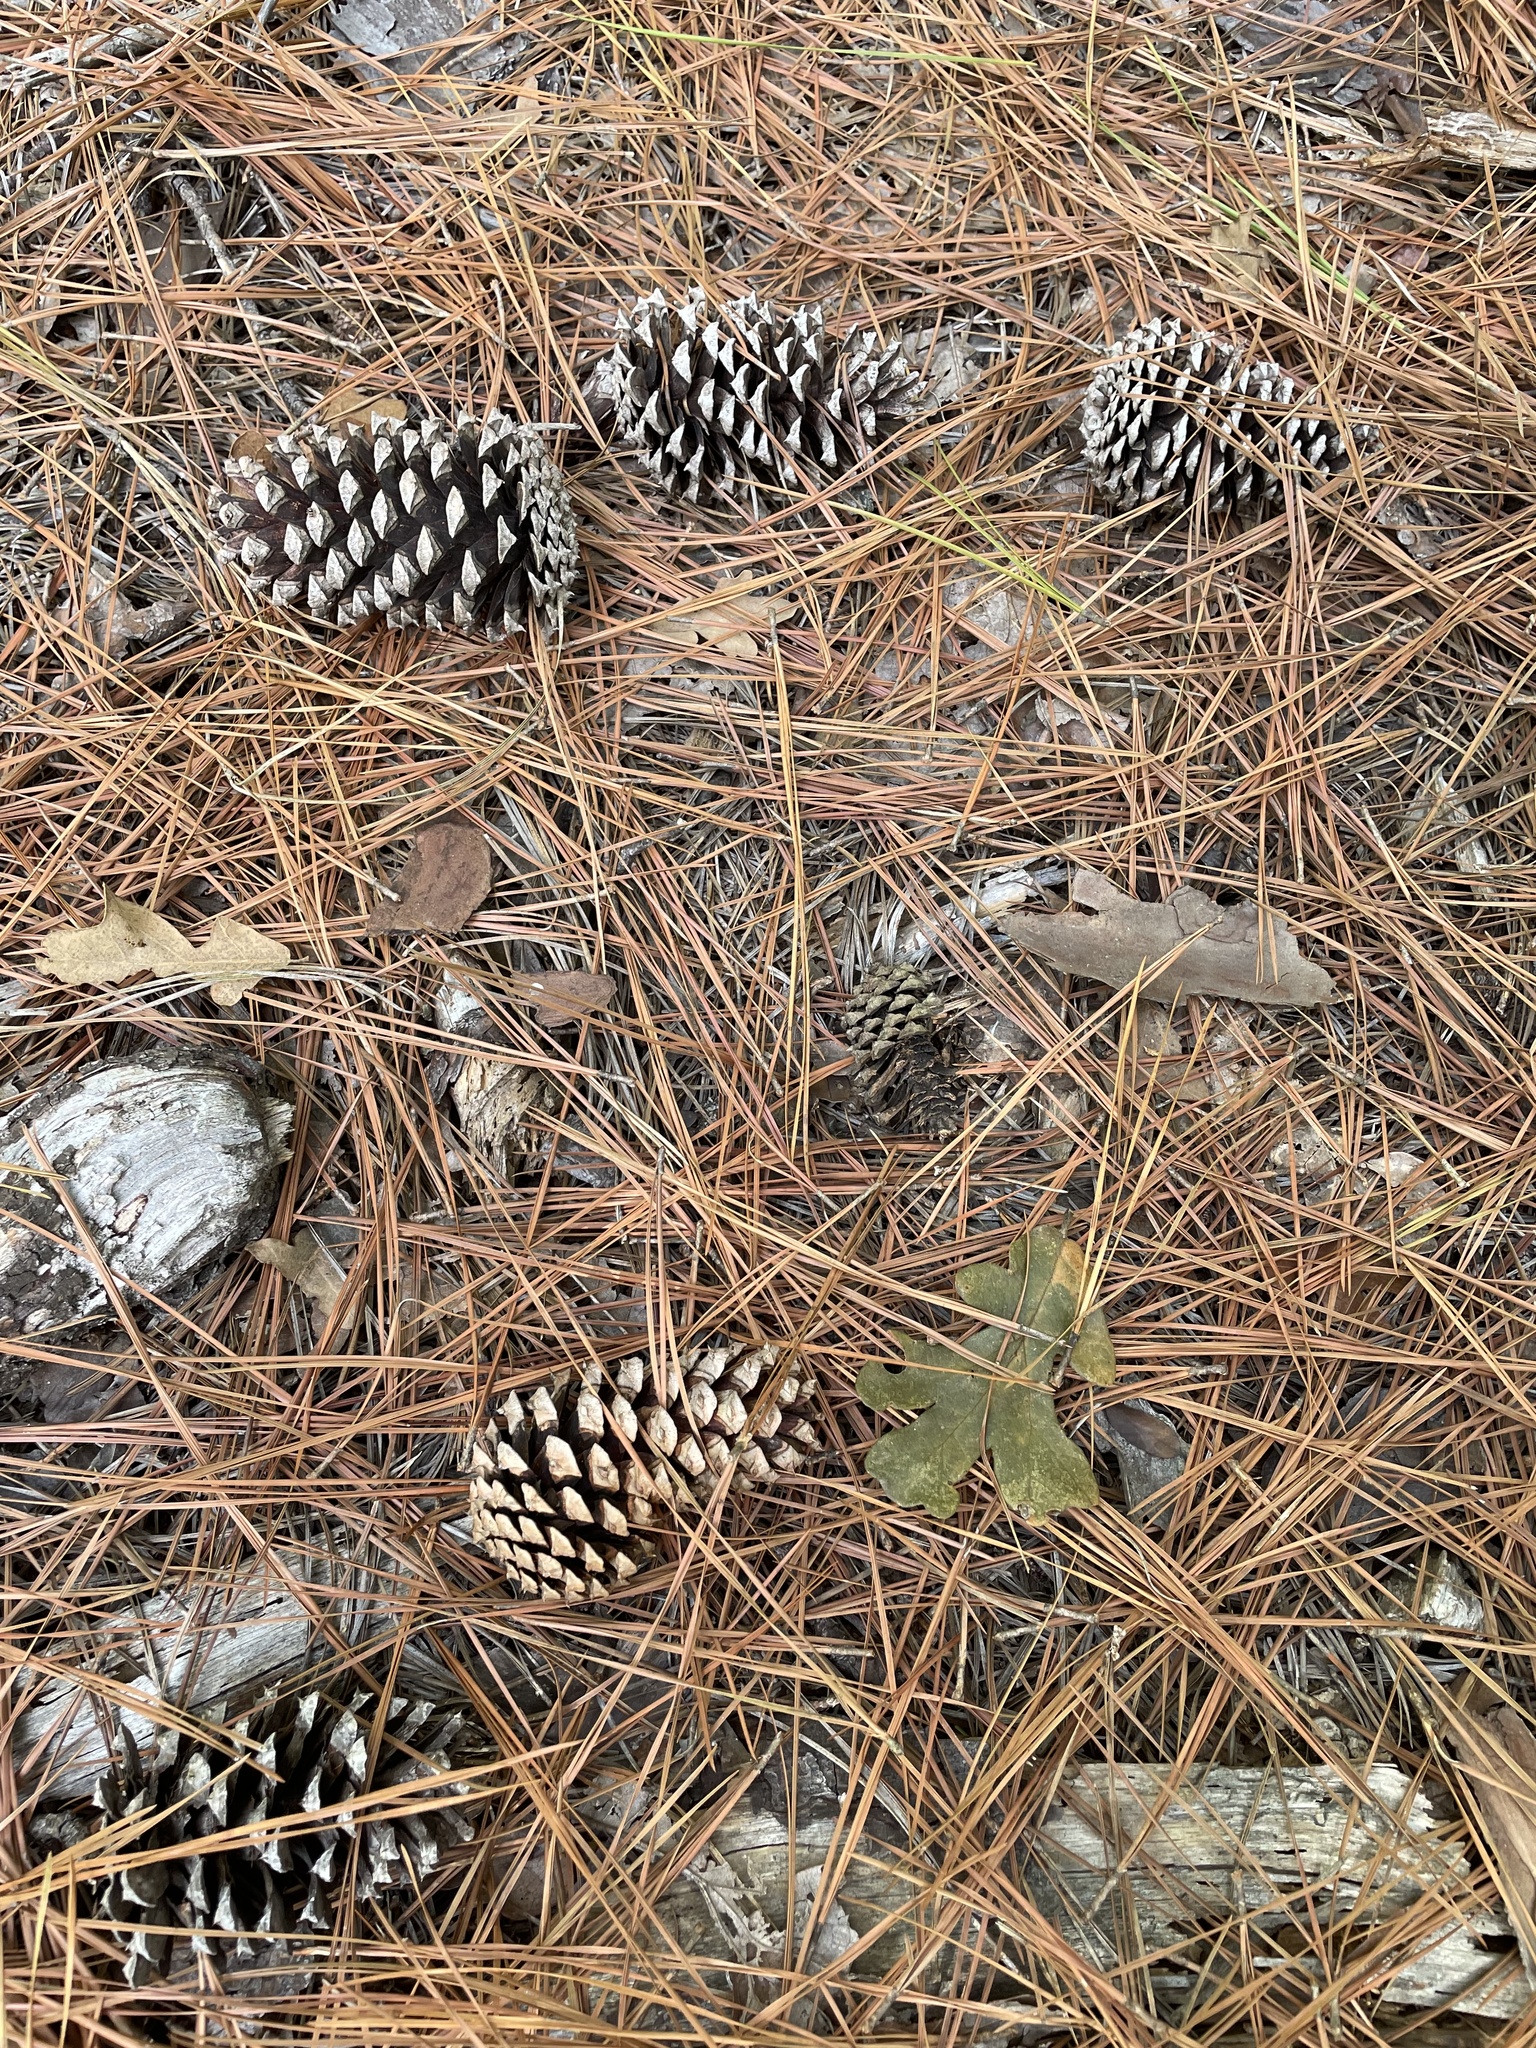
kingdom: Plantae
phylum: Tracheophyta
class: Pinopsida
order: Pinales
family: Pinaceae
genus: Pinus
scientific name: Pinus taeda
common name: Loblolly pine
